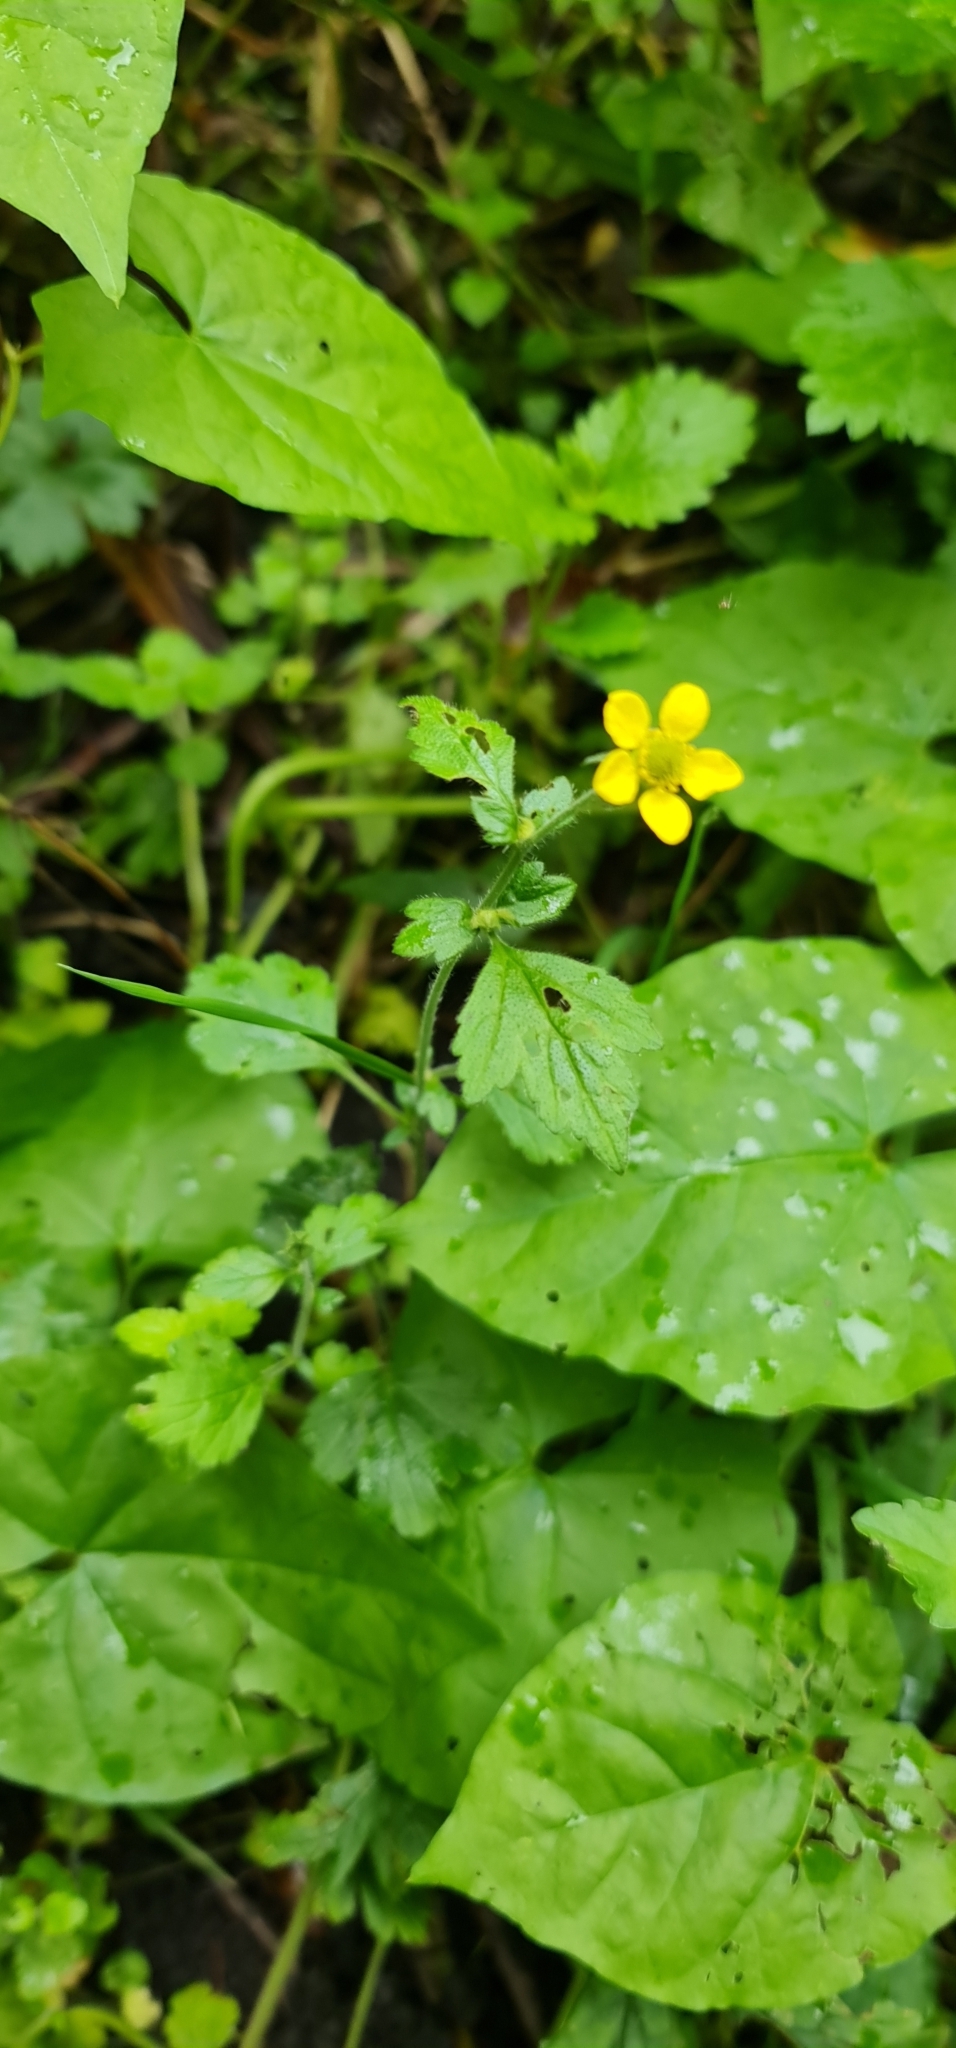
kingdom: Plantae
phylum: Tracheophyta
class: Magnoliopsida
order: Rosales
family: Rosaceae
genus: Geum
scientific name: Geum urbanum
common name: Wood avens
